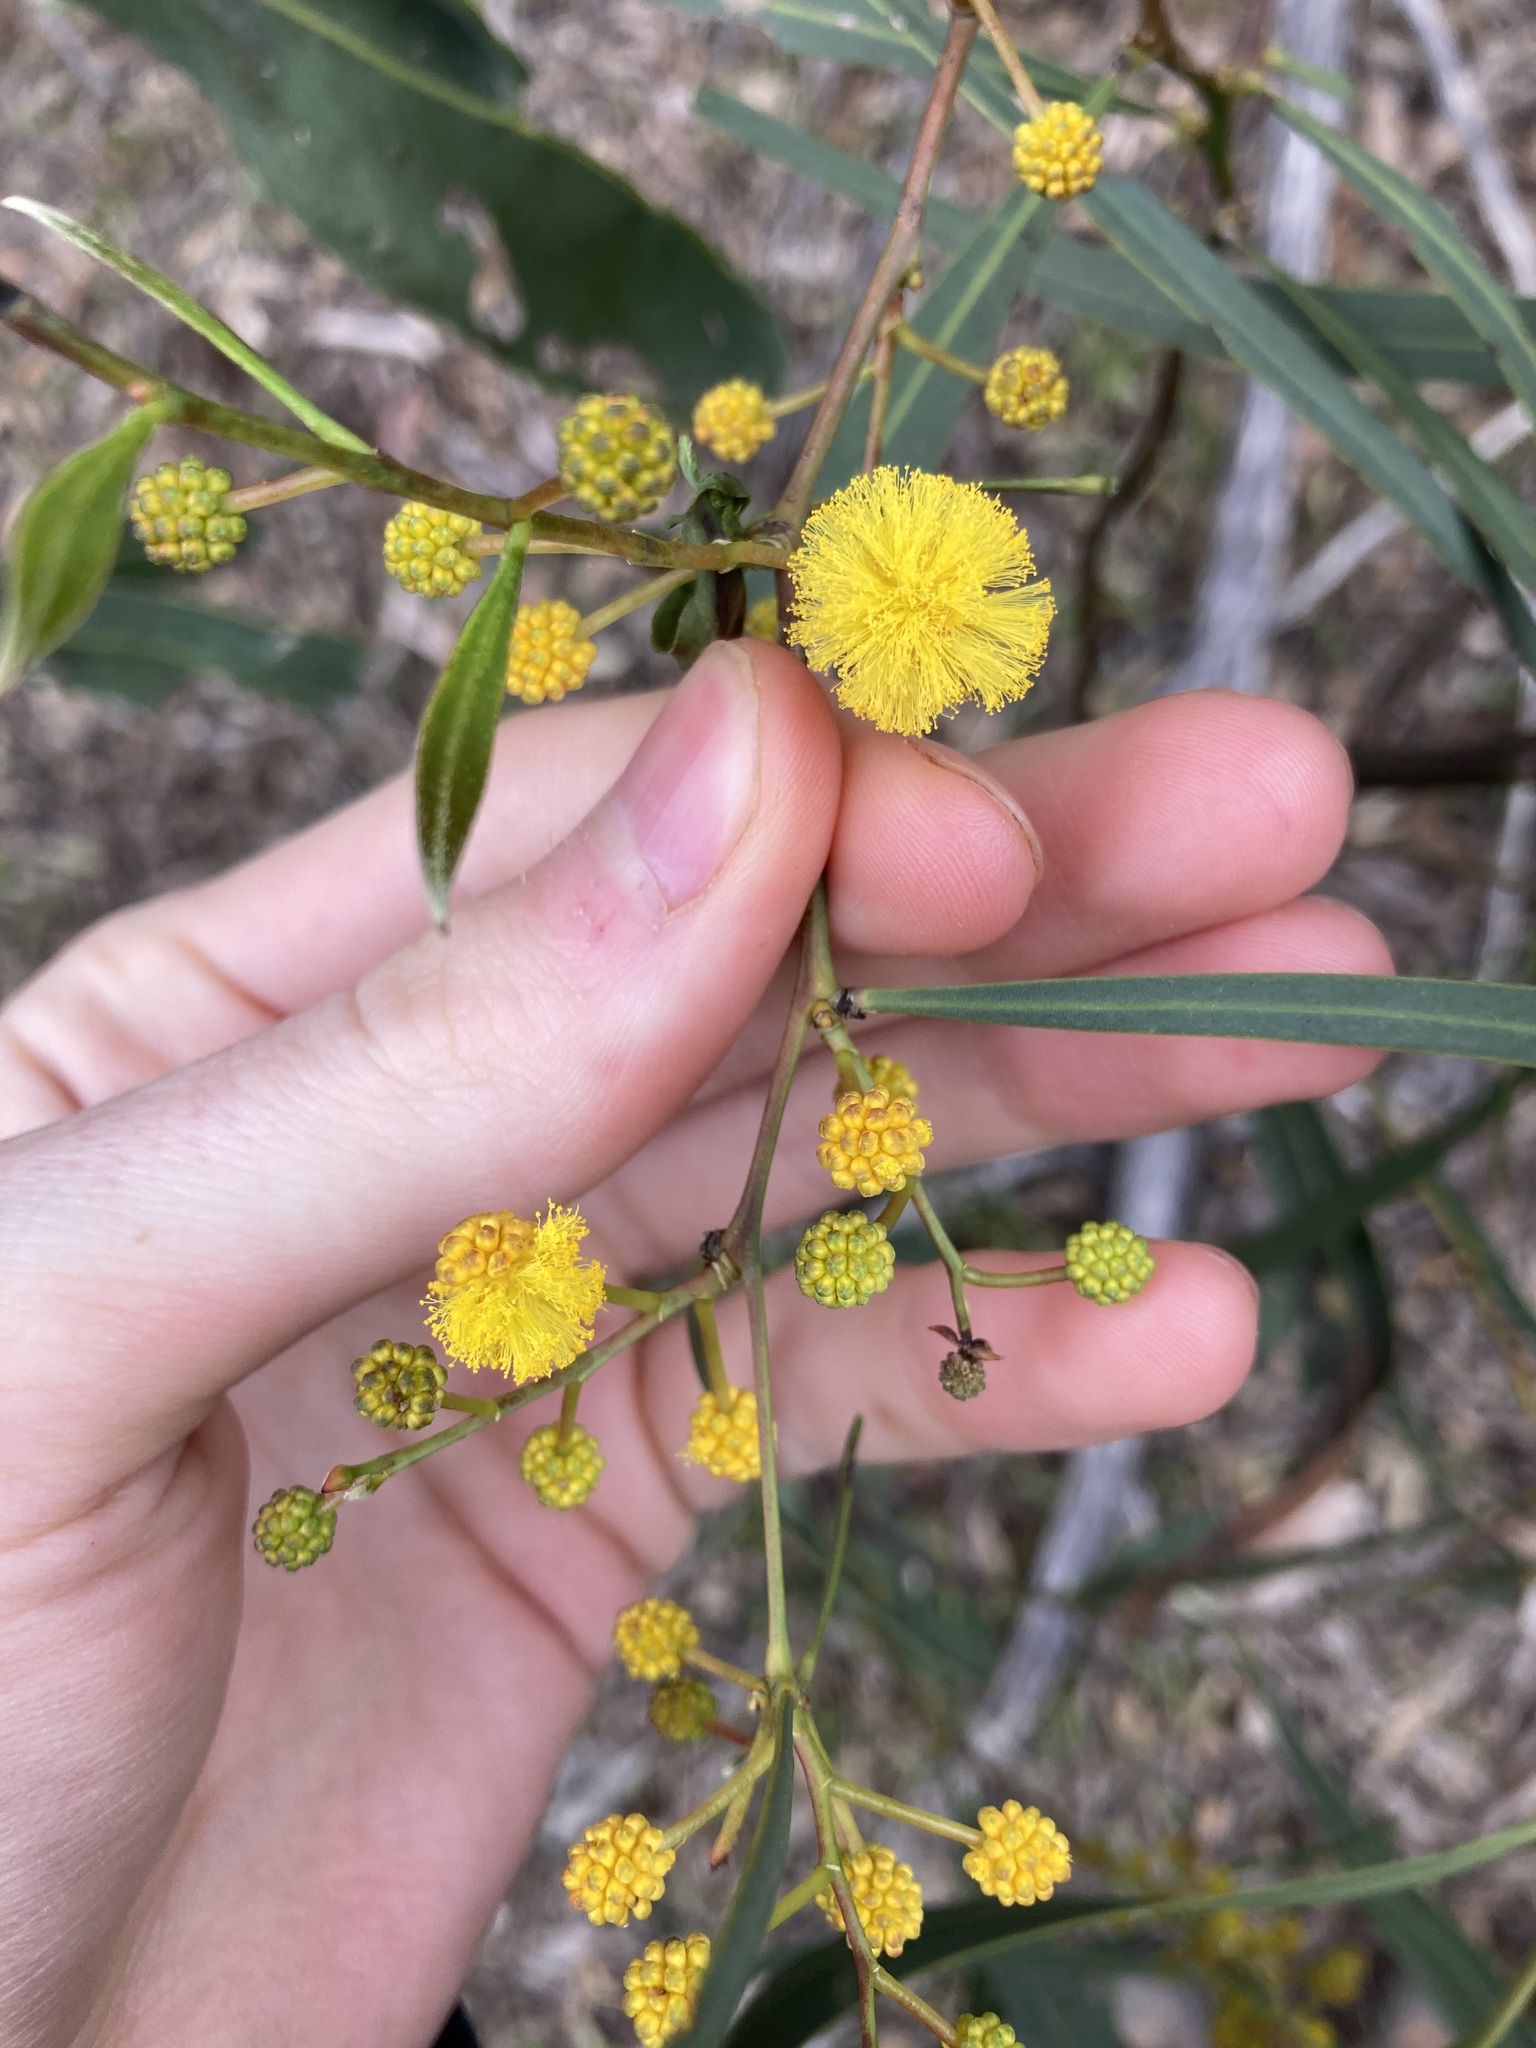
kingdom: Plantae
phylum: Tracheophyta
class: Magnoliopsida
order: Fabales
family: Fabaceae
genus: Acacia
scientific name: Acacia saligna
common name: Orange wattle
